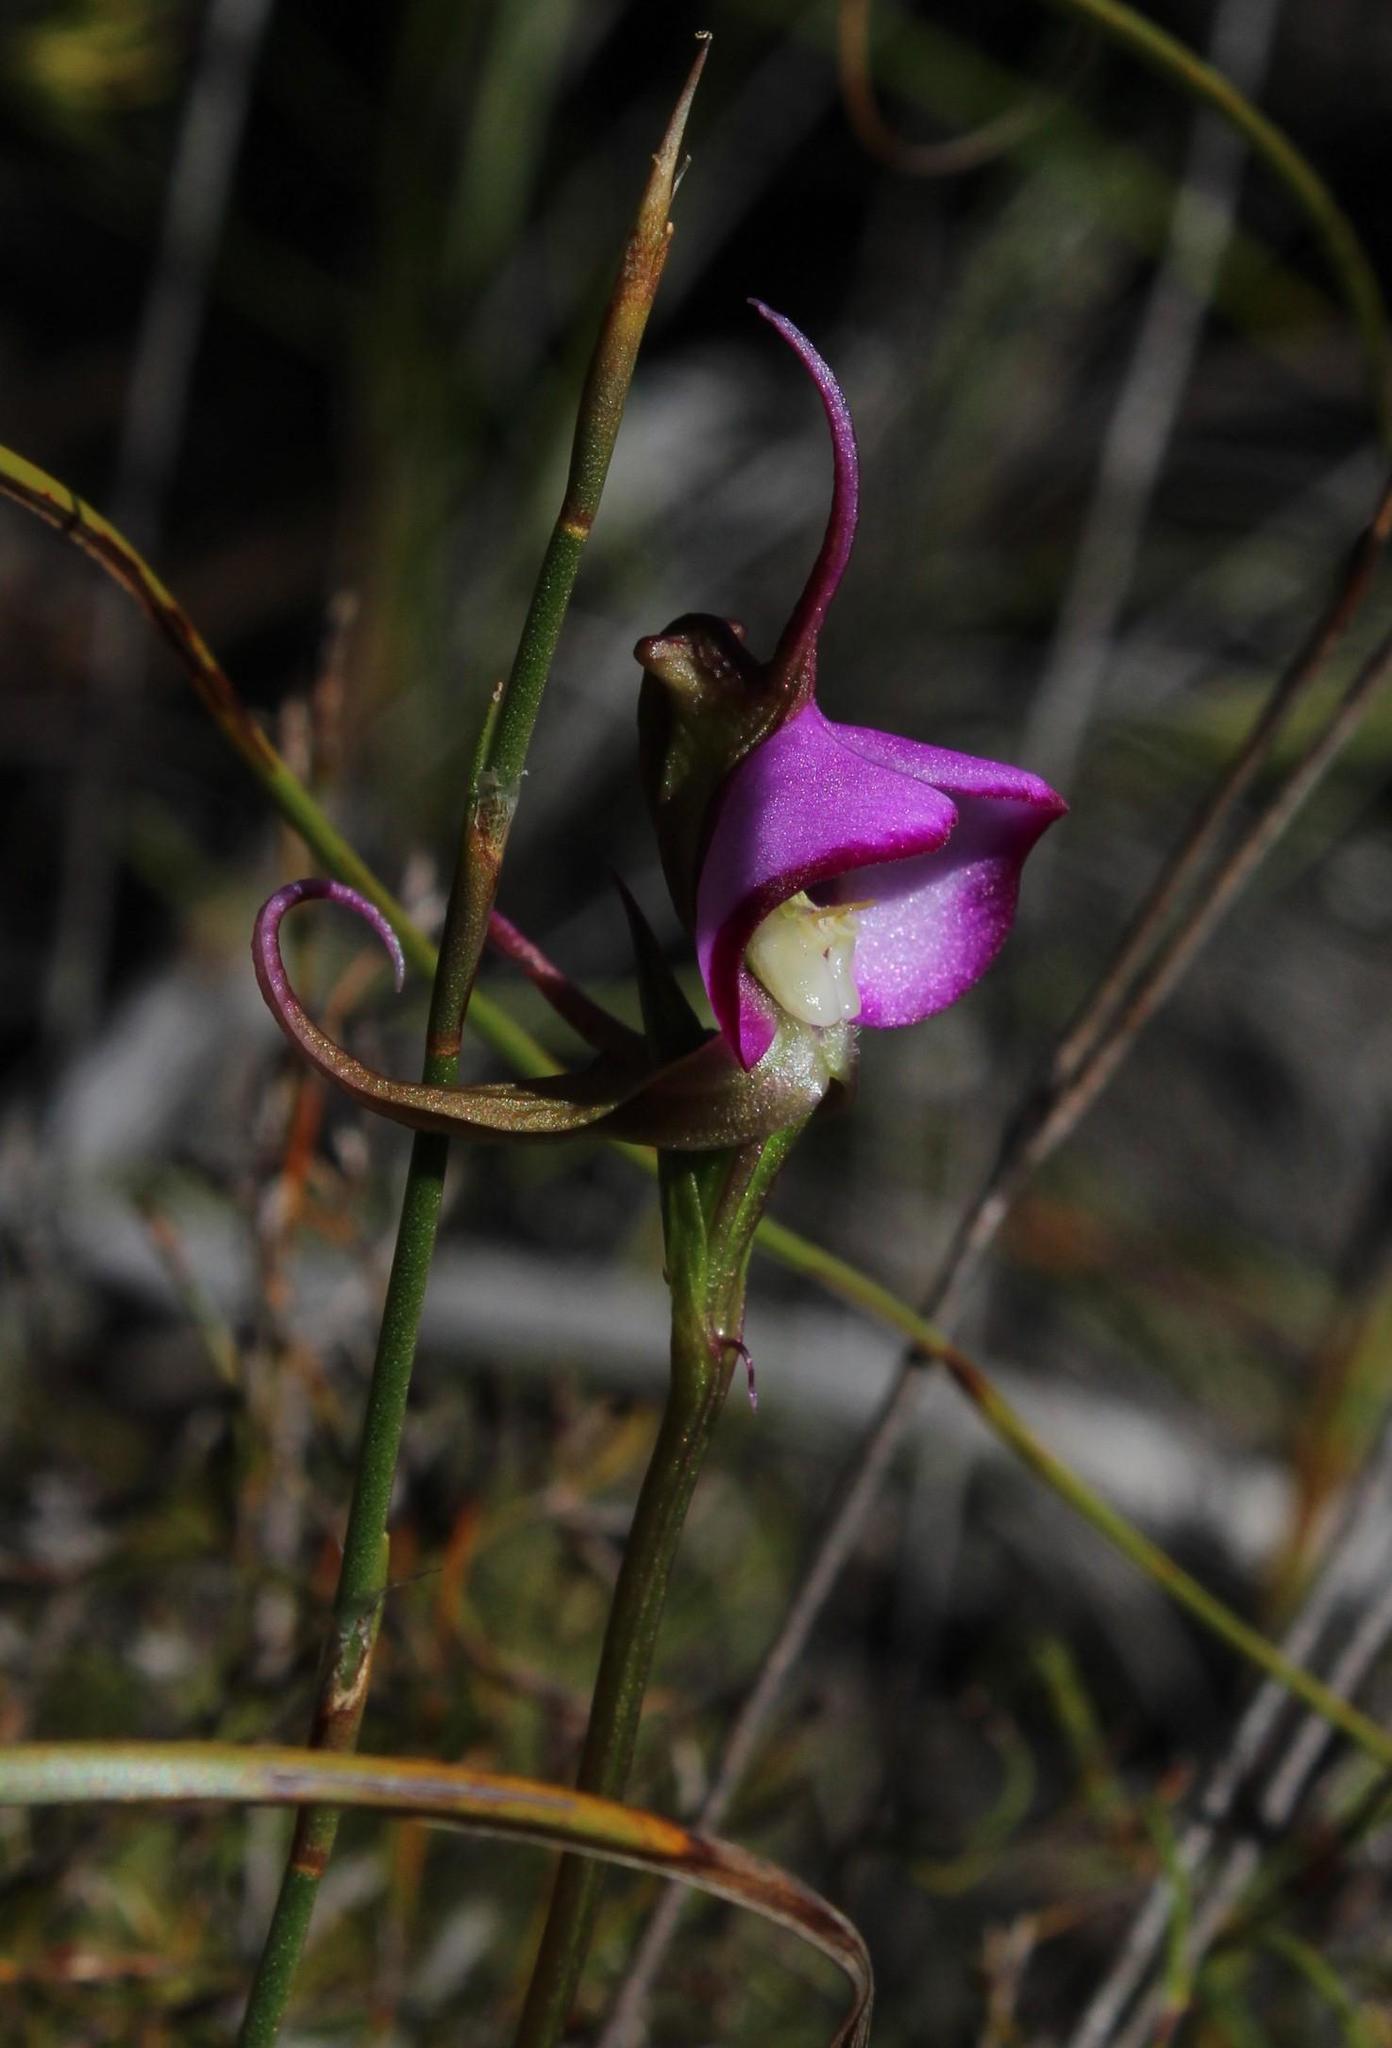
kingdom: Plantae
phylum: Tracheophyta
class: Liliopsida
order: Asparagales
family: Orchidaceae
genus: Disperis
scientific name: Disperis capensis
